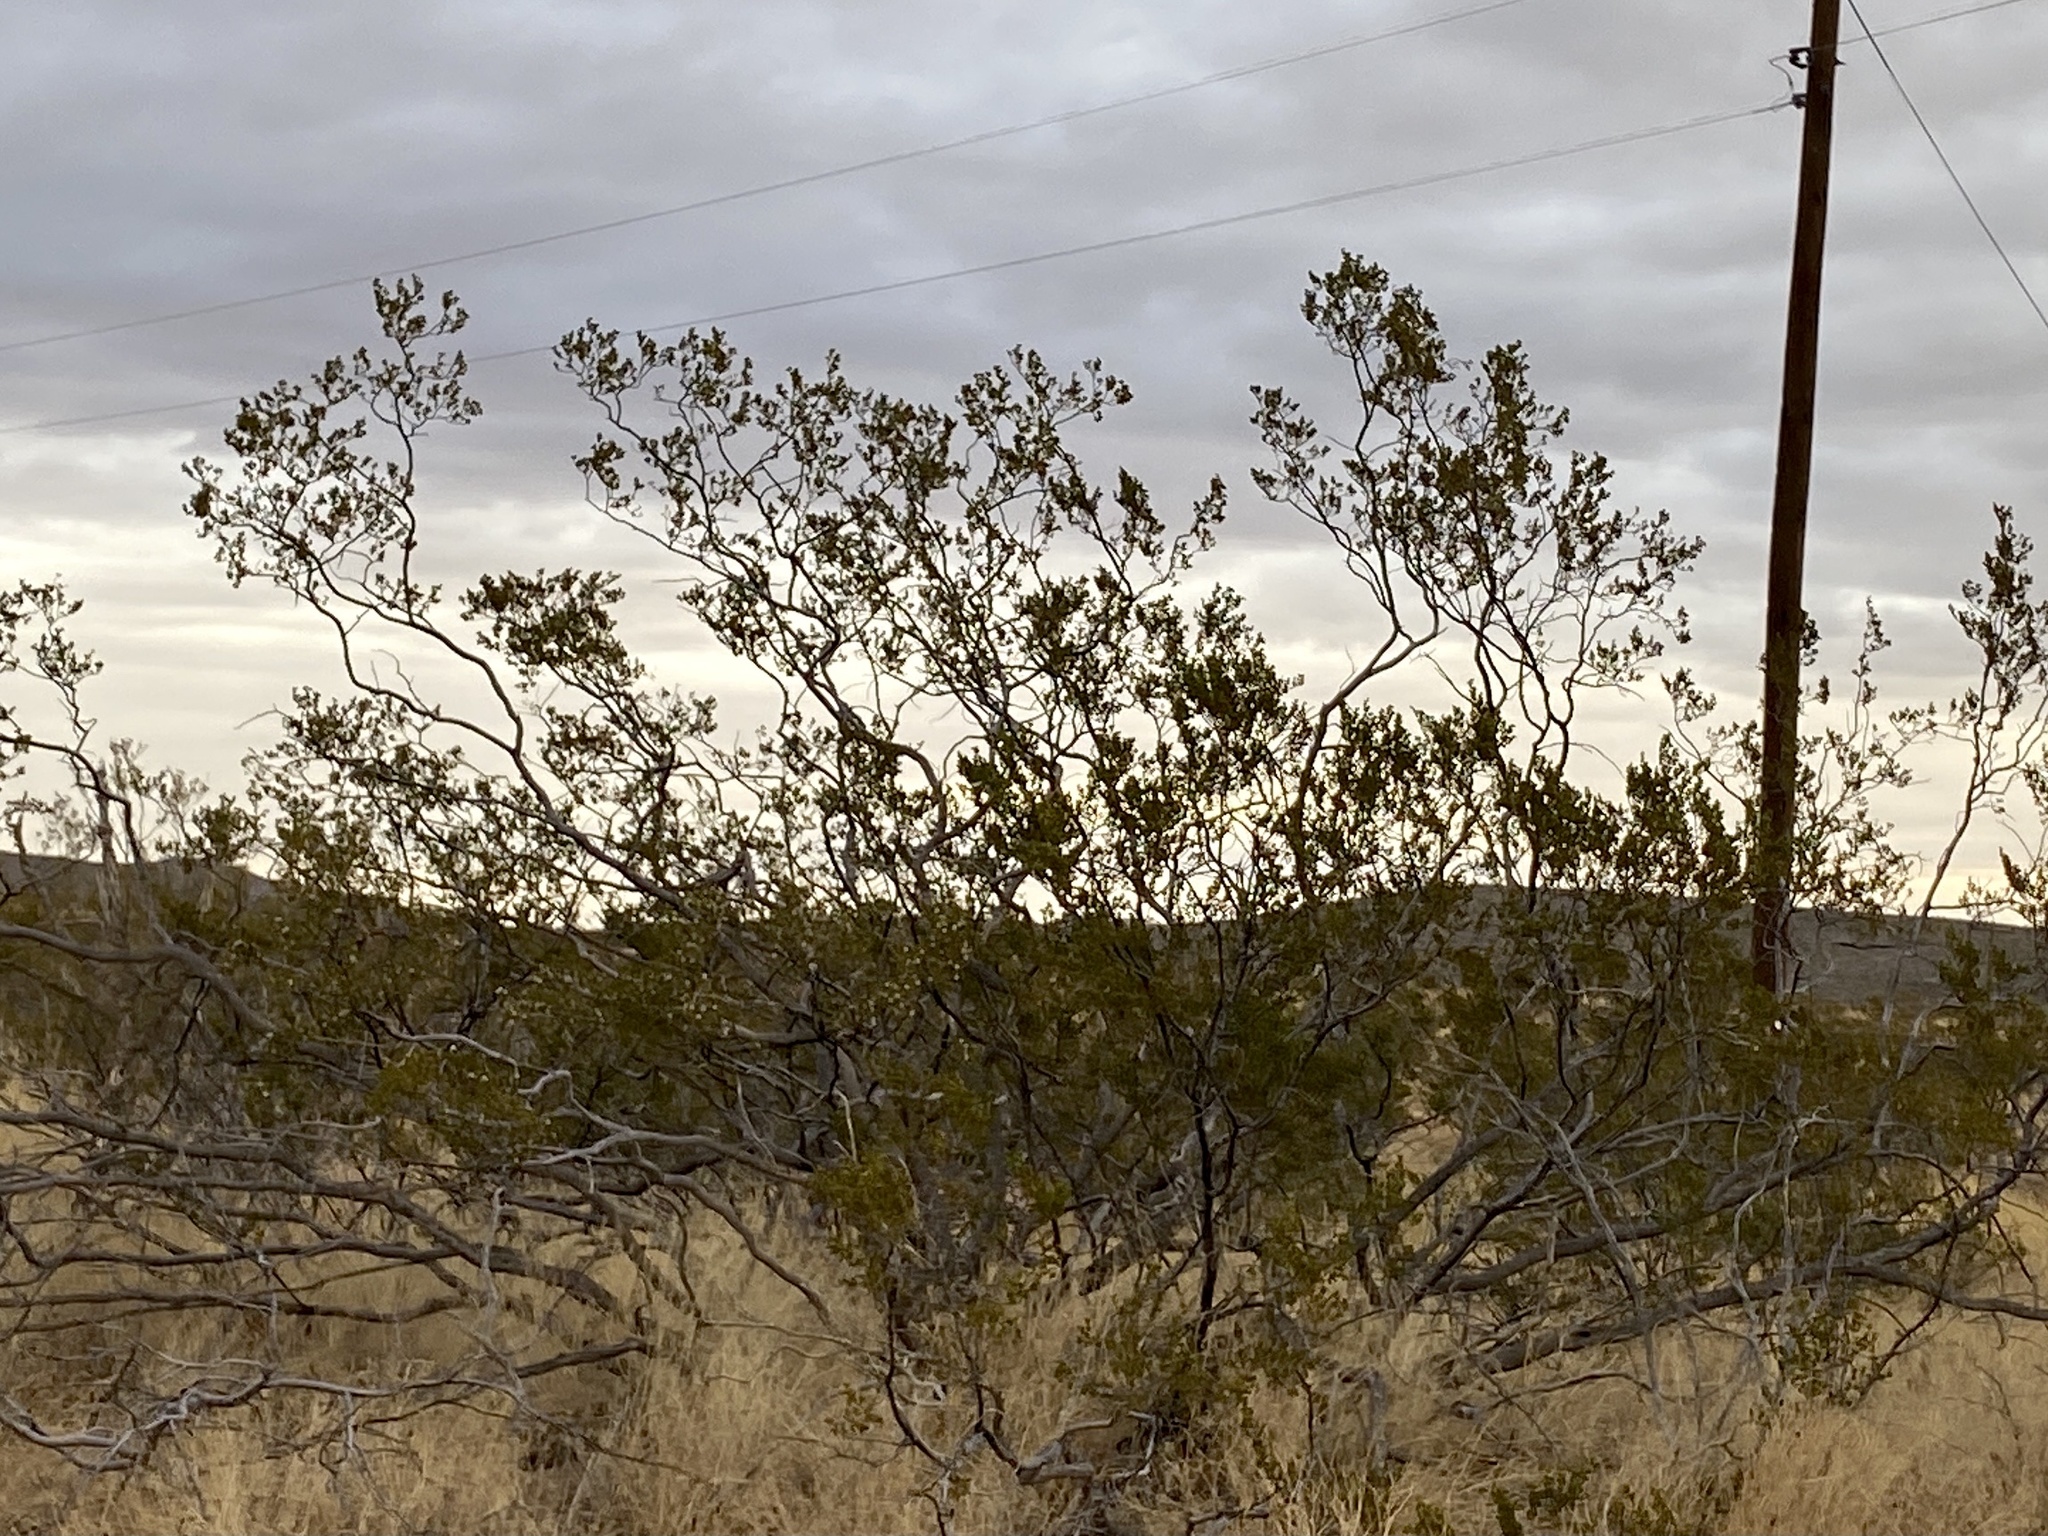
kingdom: Plantae
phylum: Tracheophyta
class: Magnoliopsida
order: Zygophyllales
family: Zygophyllaceae
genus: Larrea
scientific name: Larrea tridentata
